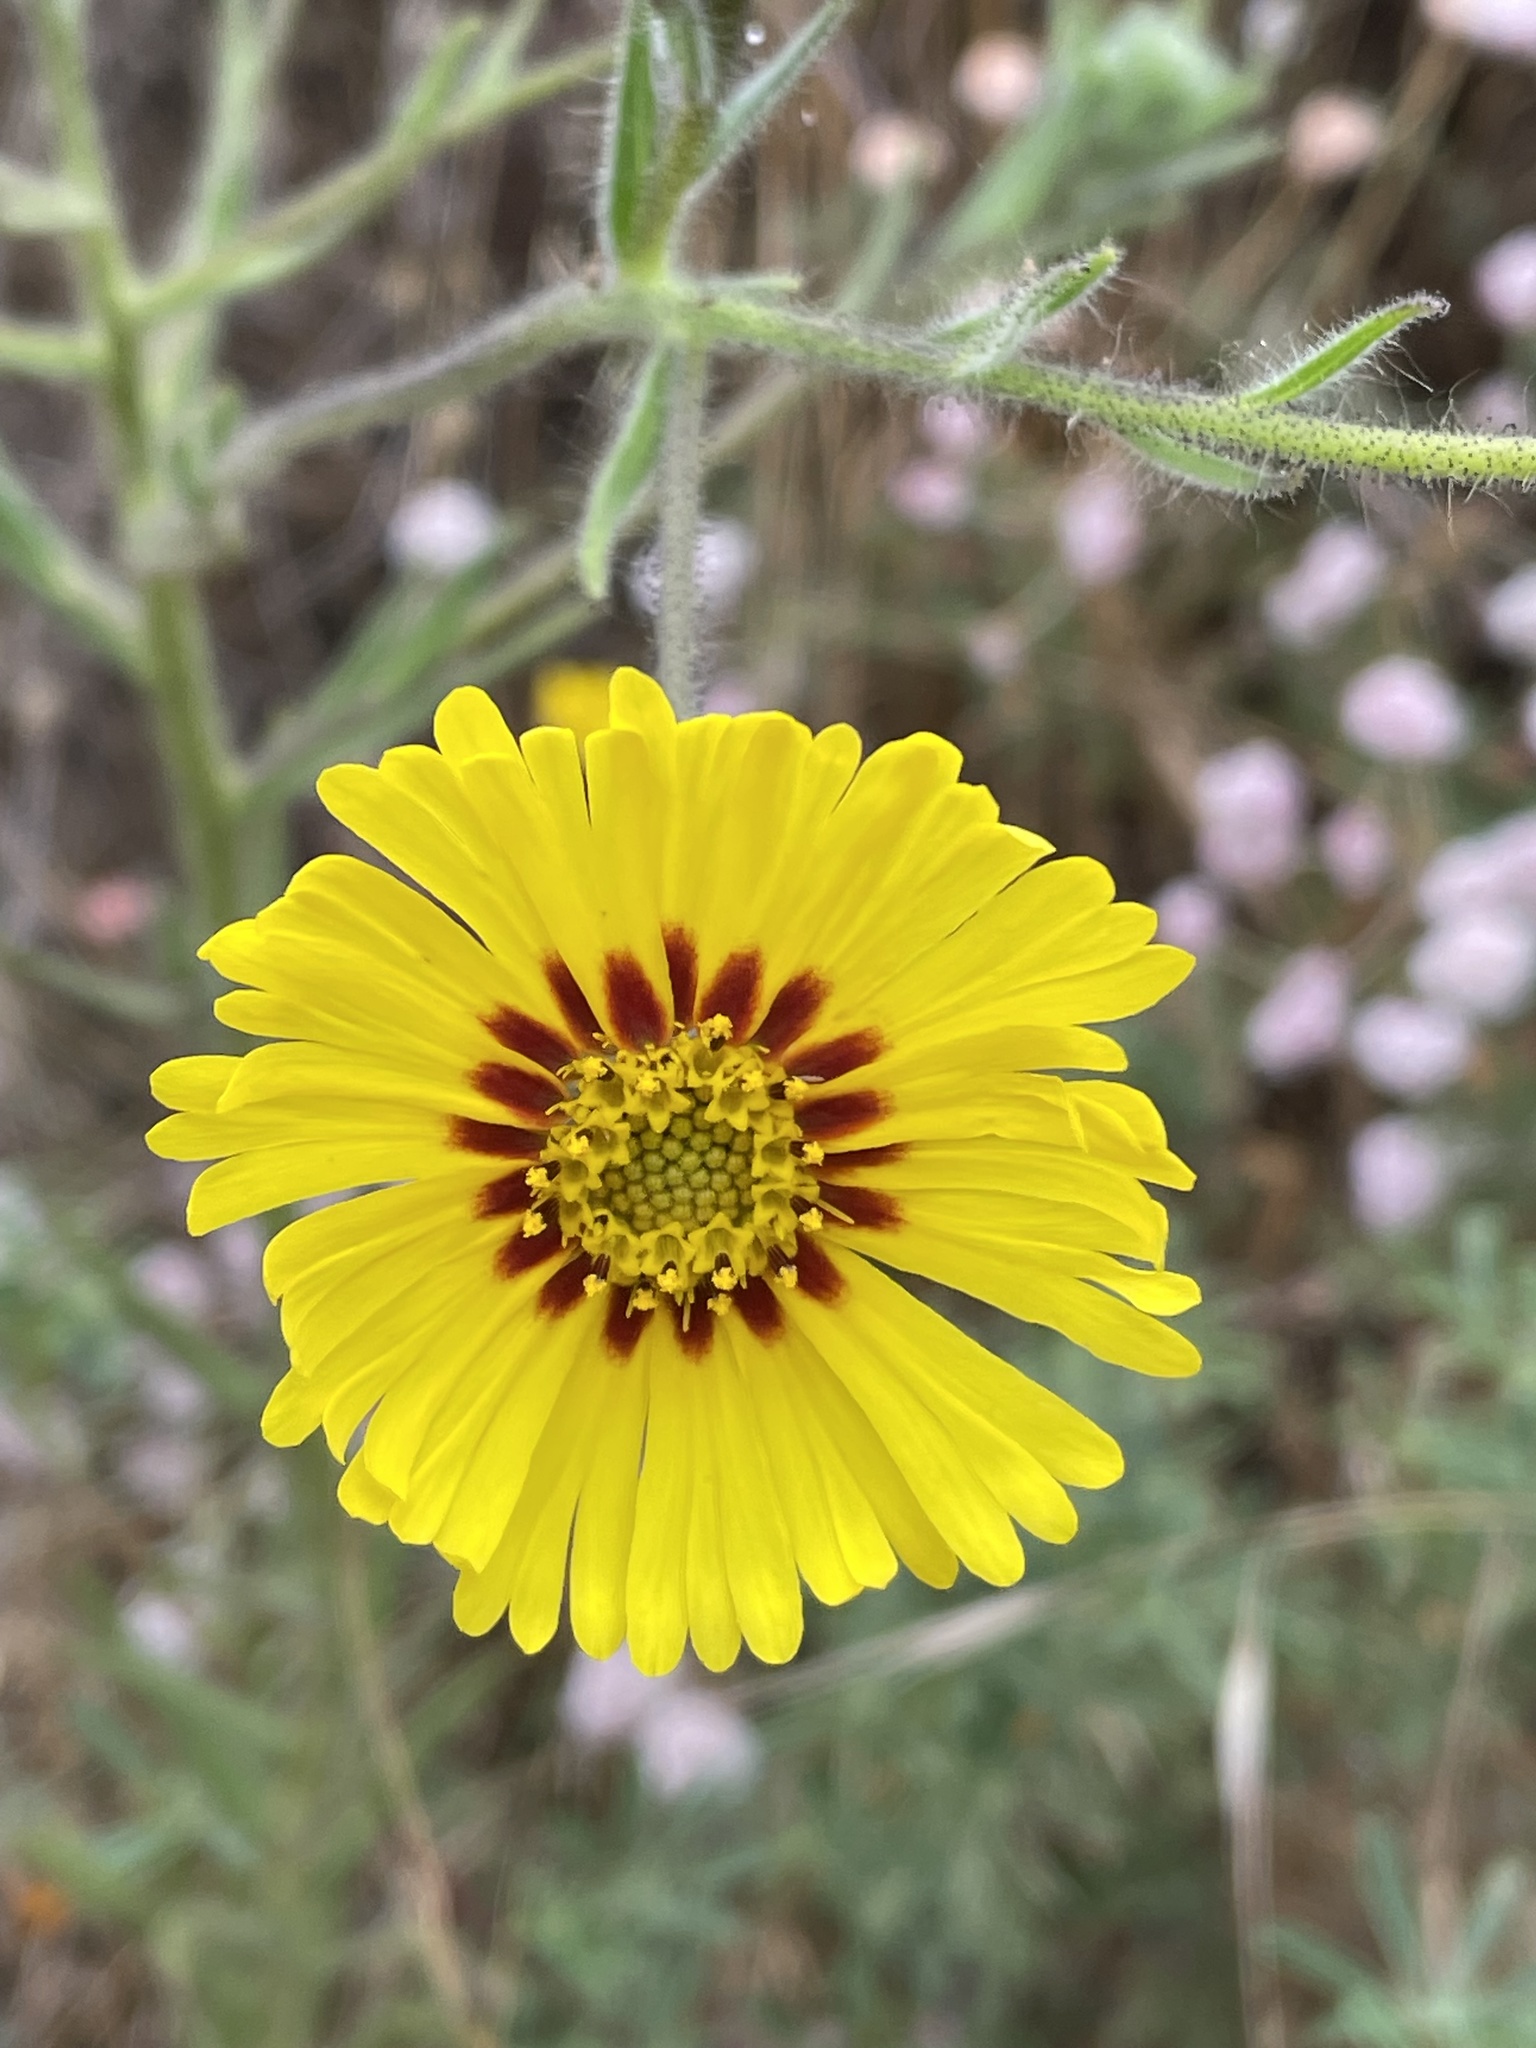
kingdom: Plantae
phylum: Tracheophyta
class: Magnoliopsida
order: Asterales
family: Asteraceae
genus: Madia
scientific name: Madia elegans
